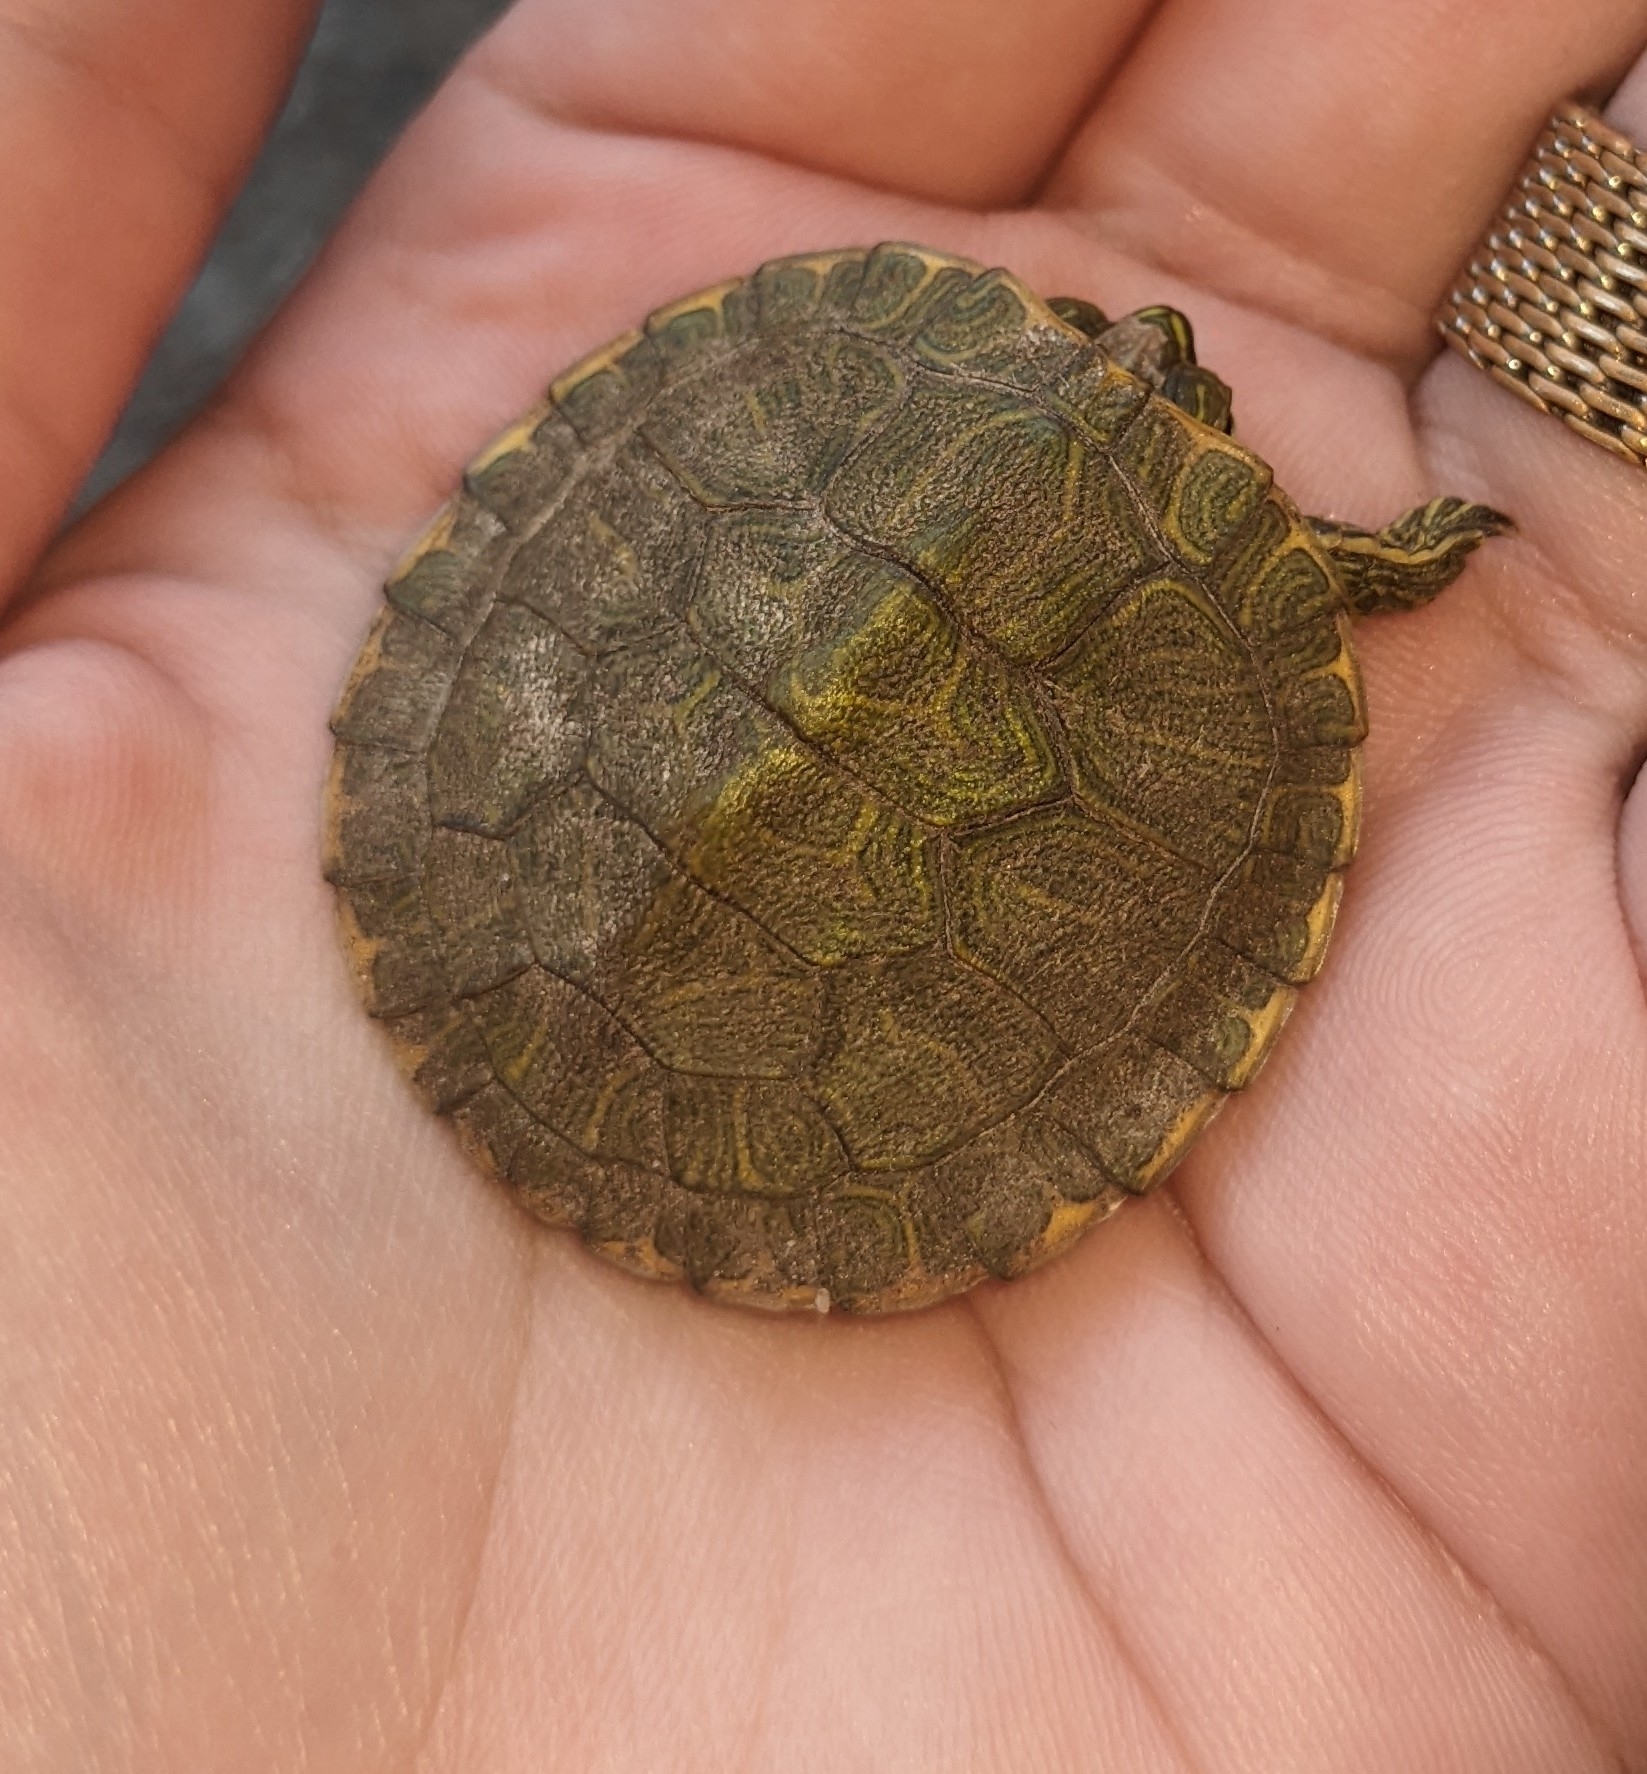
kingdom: Animalia
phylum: Chordata
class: Testudines
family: Emydidae
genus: Trachemys
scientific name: Trachemys scripta
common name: Slider
